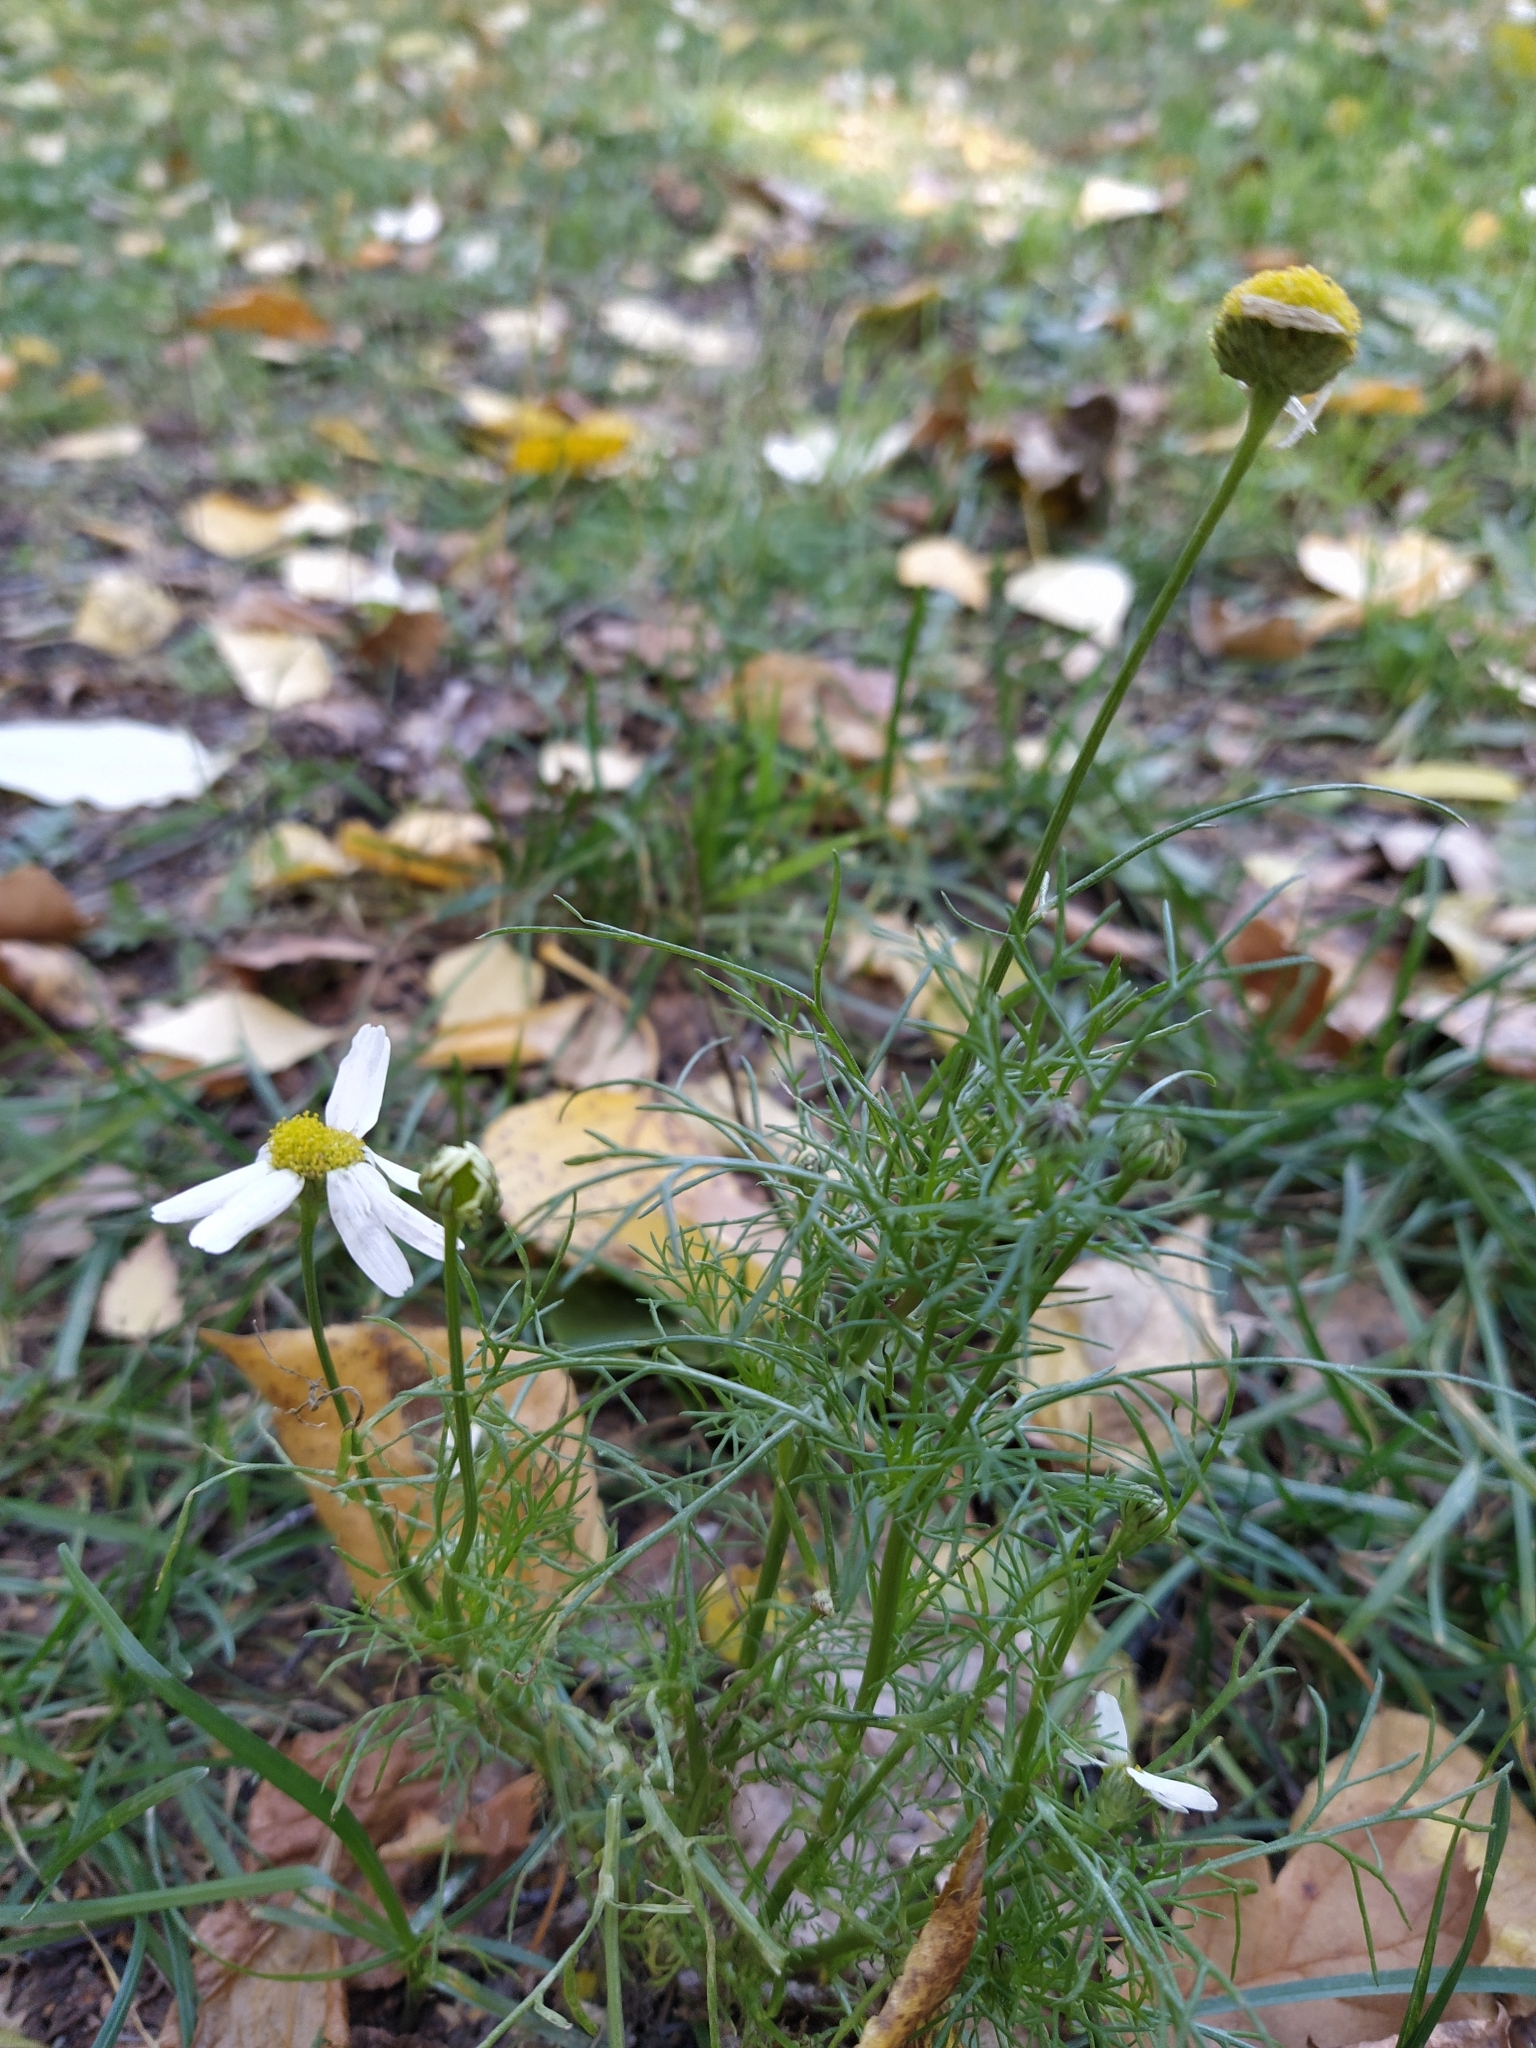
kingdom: Plantae
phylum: Tracheophyta
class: Magnoliopsida
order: Asterales
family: Asteraceae
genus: Tripleurospermum
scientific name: Tripleurospermum inodorum
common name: Scentless mayweed
